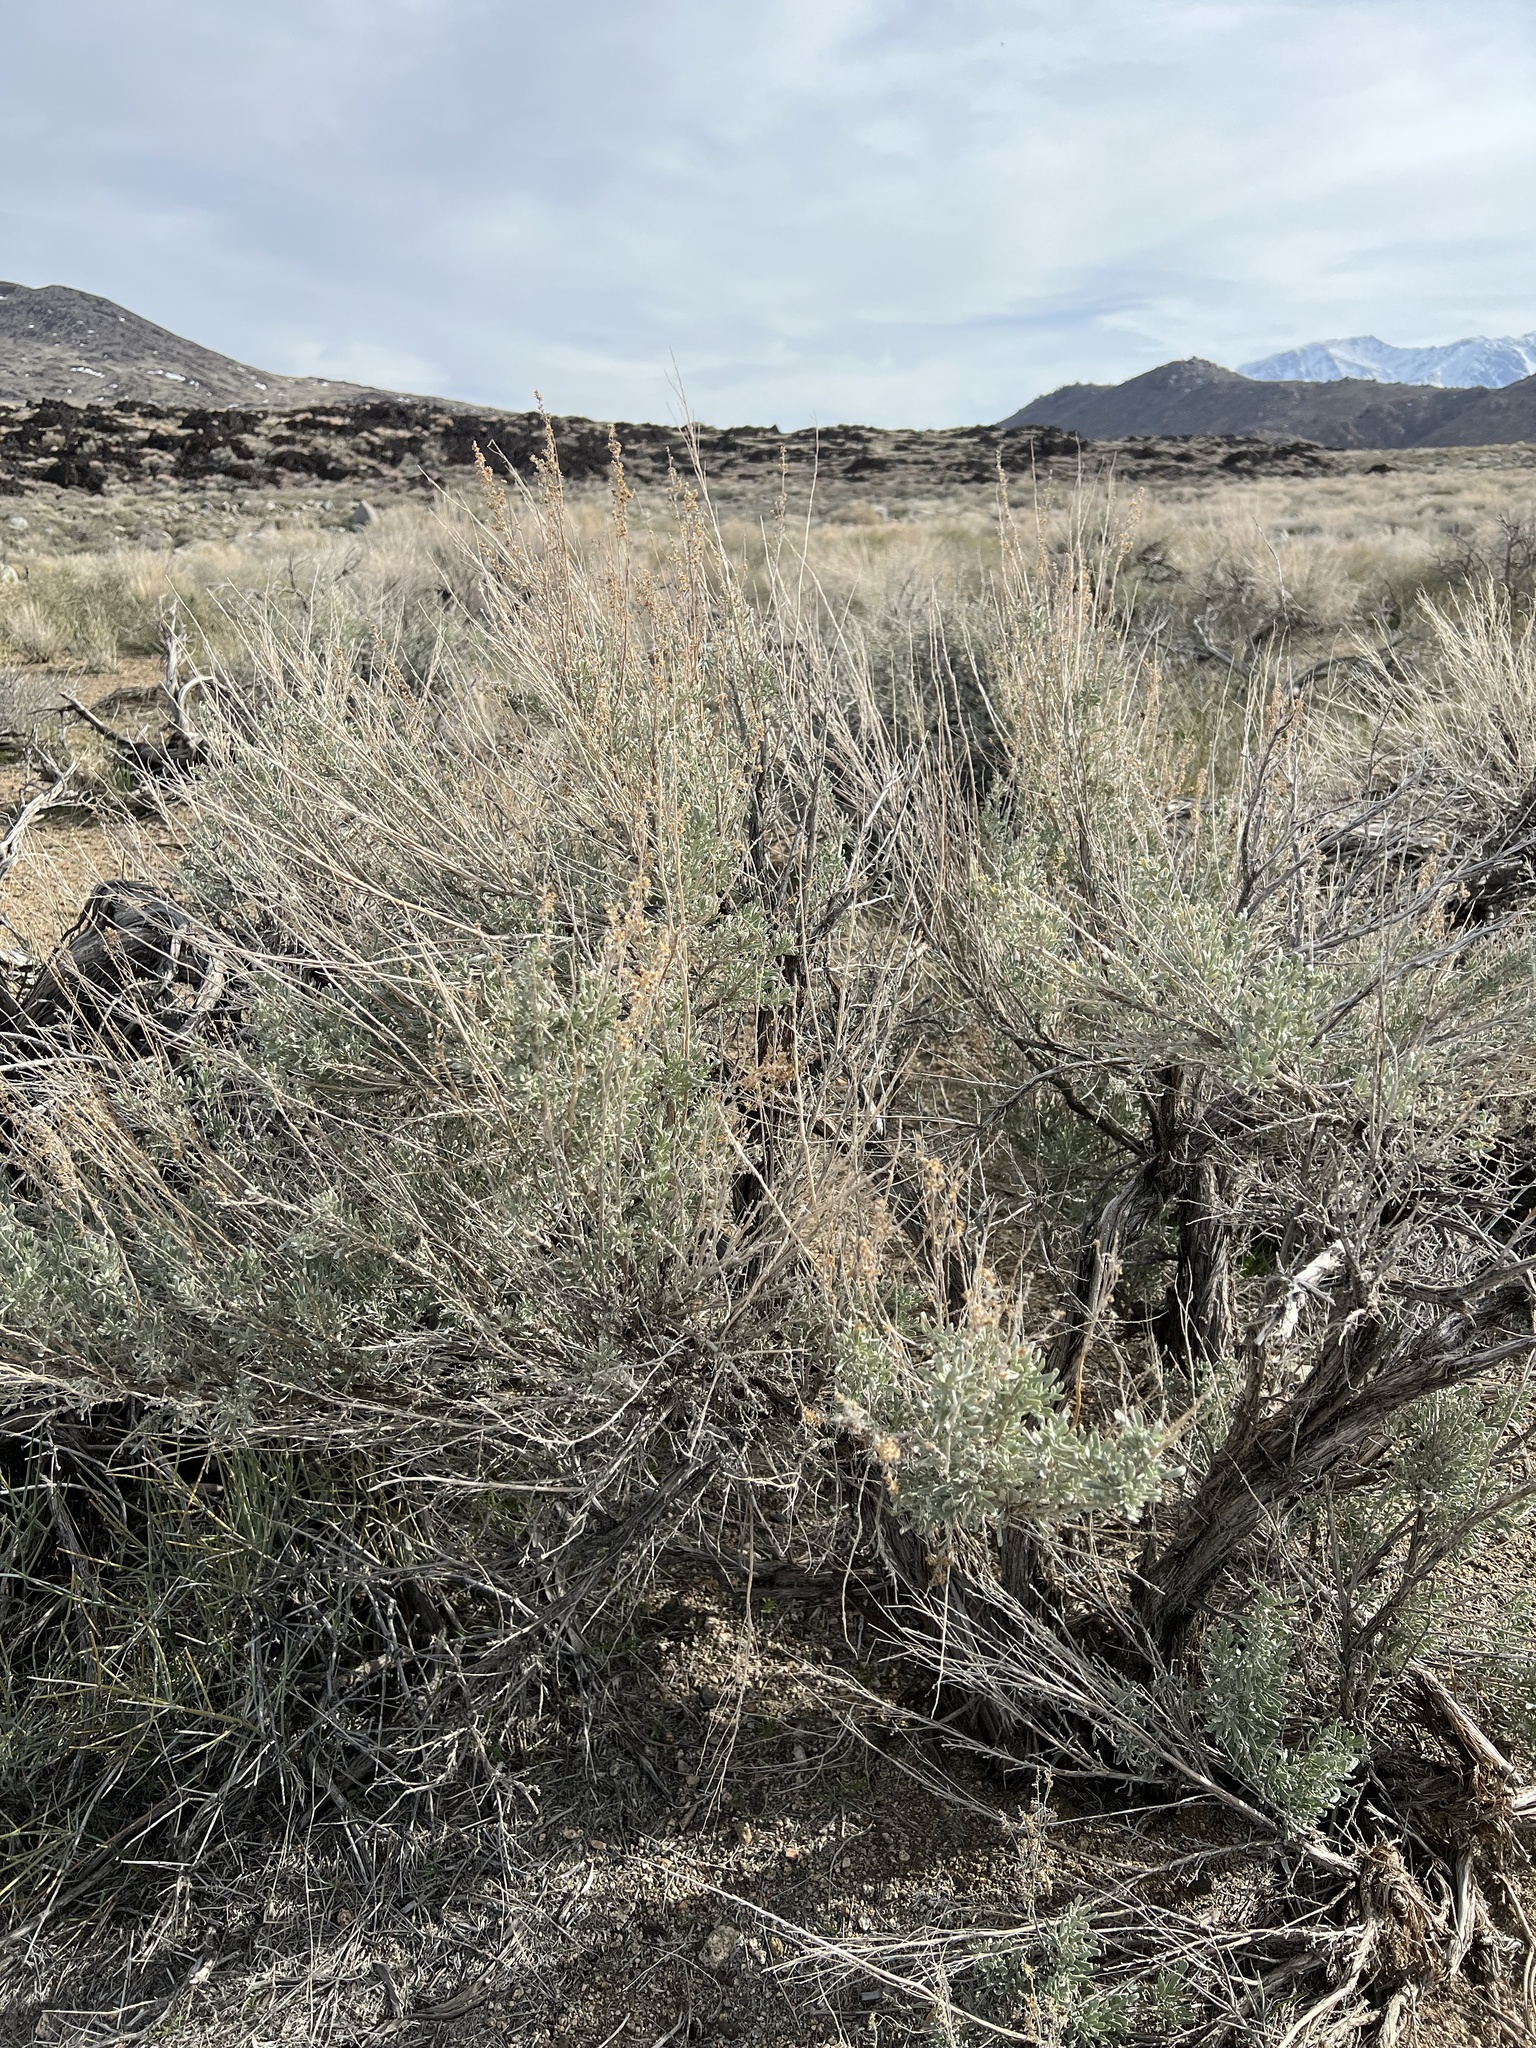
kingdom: Plantae
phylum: Tracheophyta
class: Magnoliopsida
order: Asterales
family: Asteraceae
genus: Artemisia
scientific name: Artemisia tridentata
